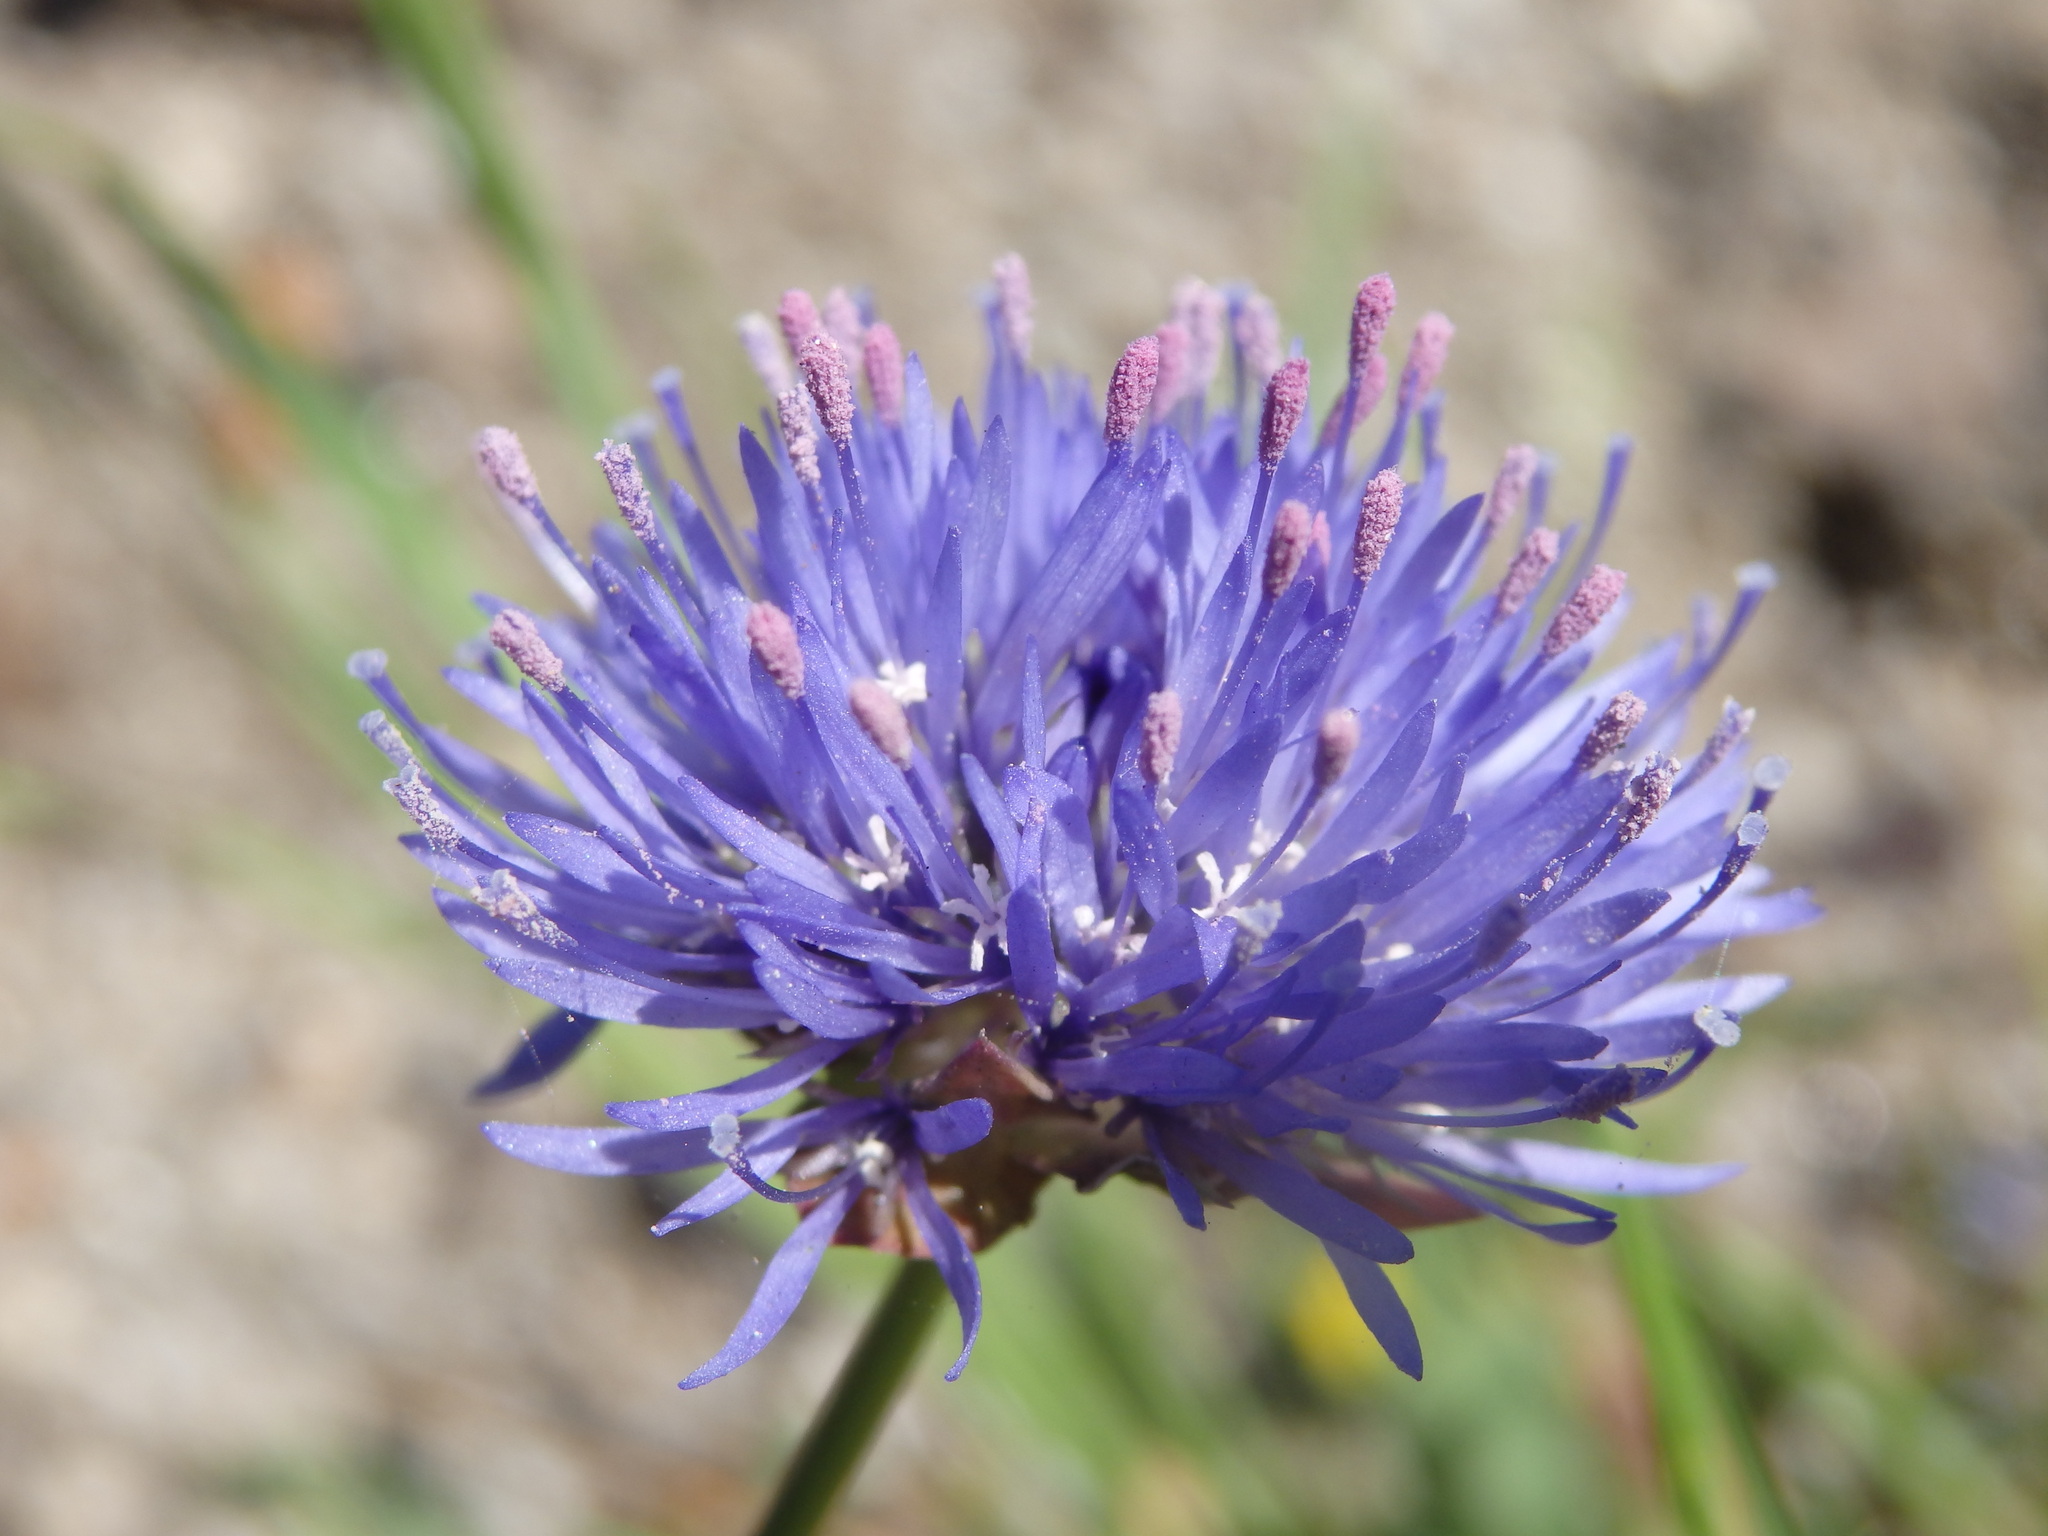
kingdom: Plantae
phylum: Tracheophyta
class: Magnoliopsida
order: Asterales
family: Campanulaceae
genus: Jasione
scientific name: Jasione montana
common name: Sheep's-bit
